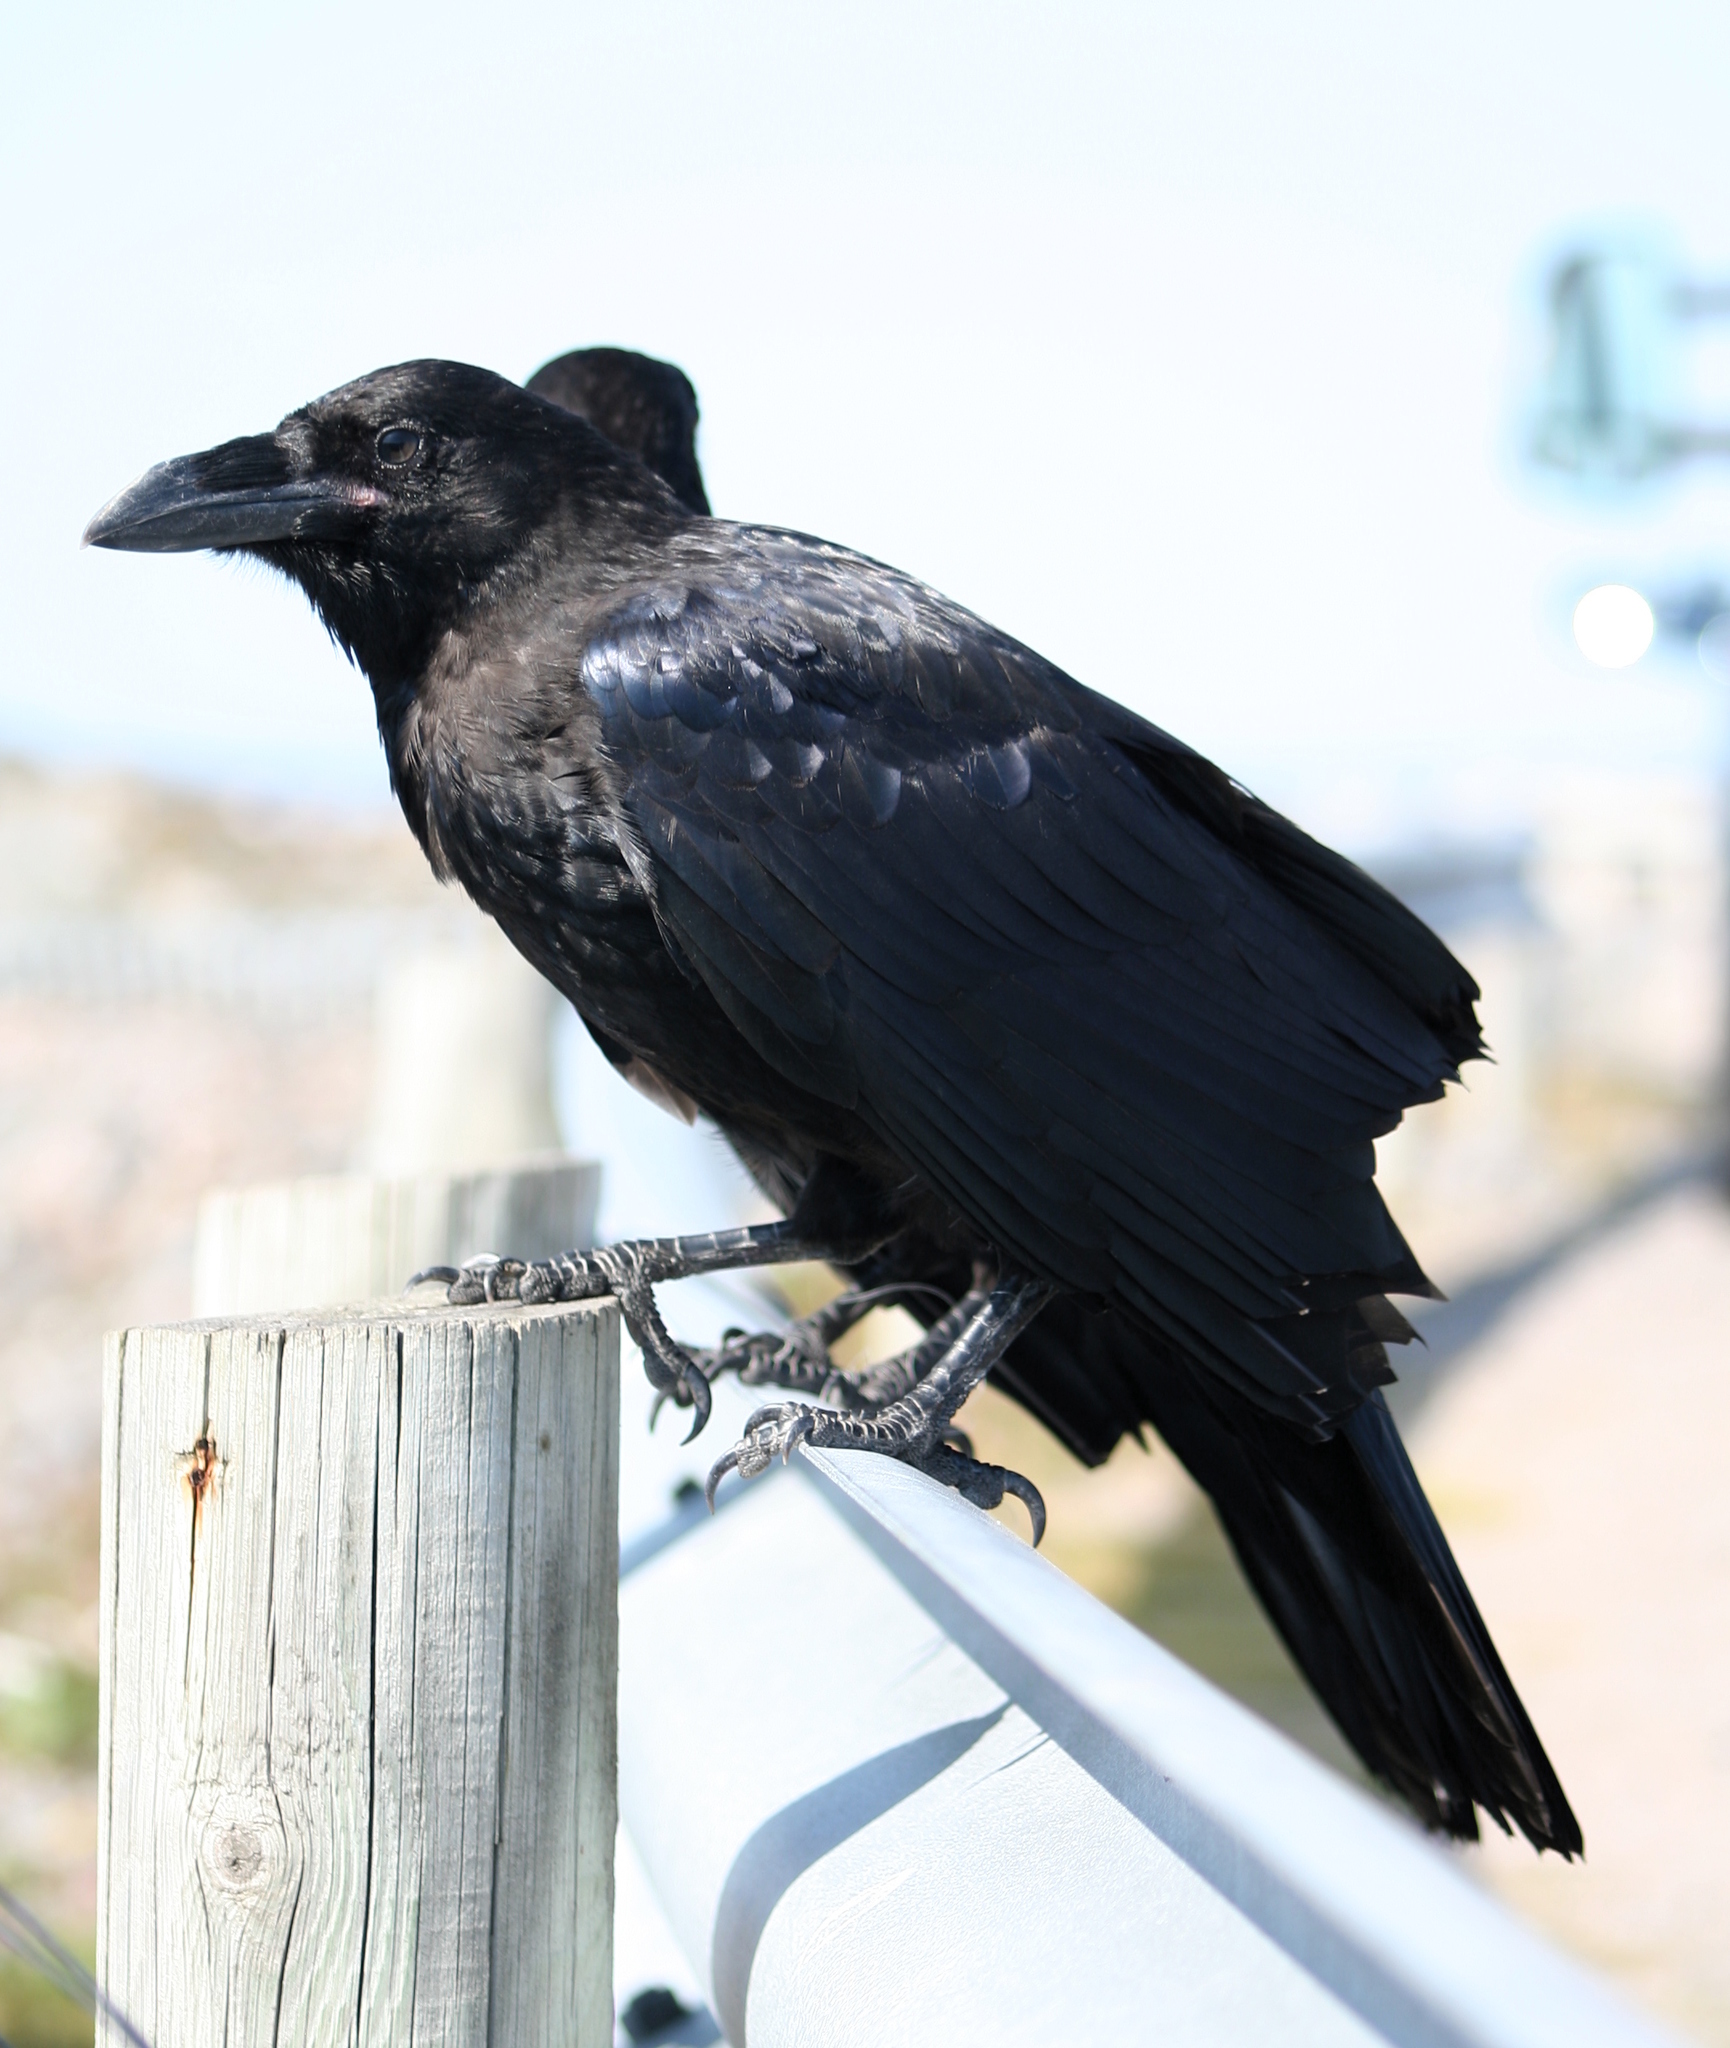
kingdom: Animalia
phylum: Chordata
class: Aves
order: Passeriformes
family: Corvidae
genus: Corvus
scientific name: Corvus corax
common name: Common raven
